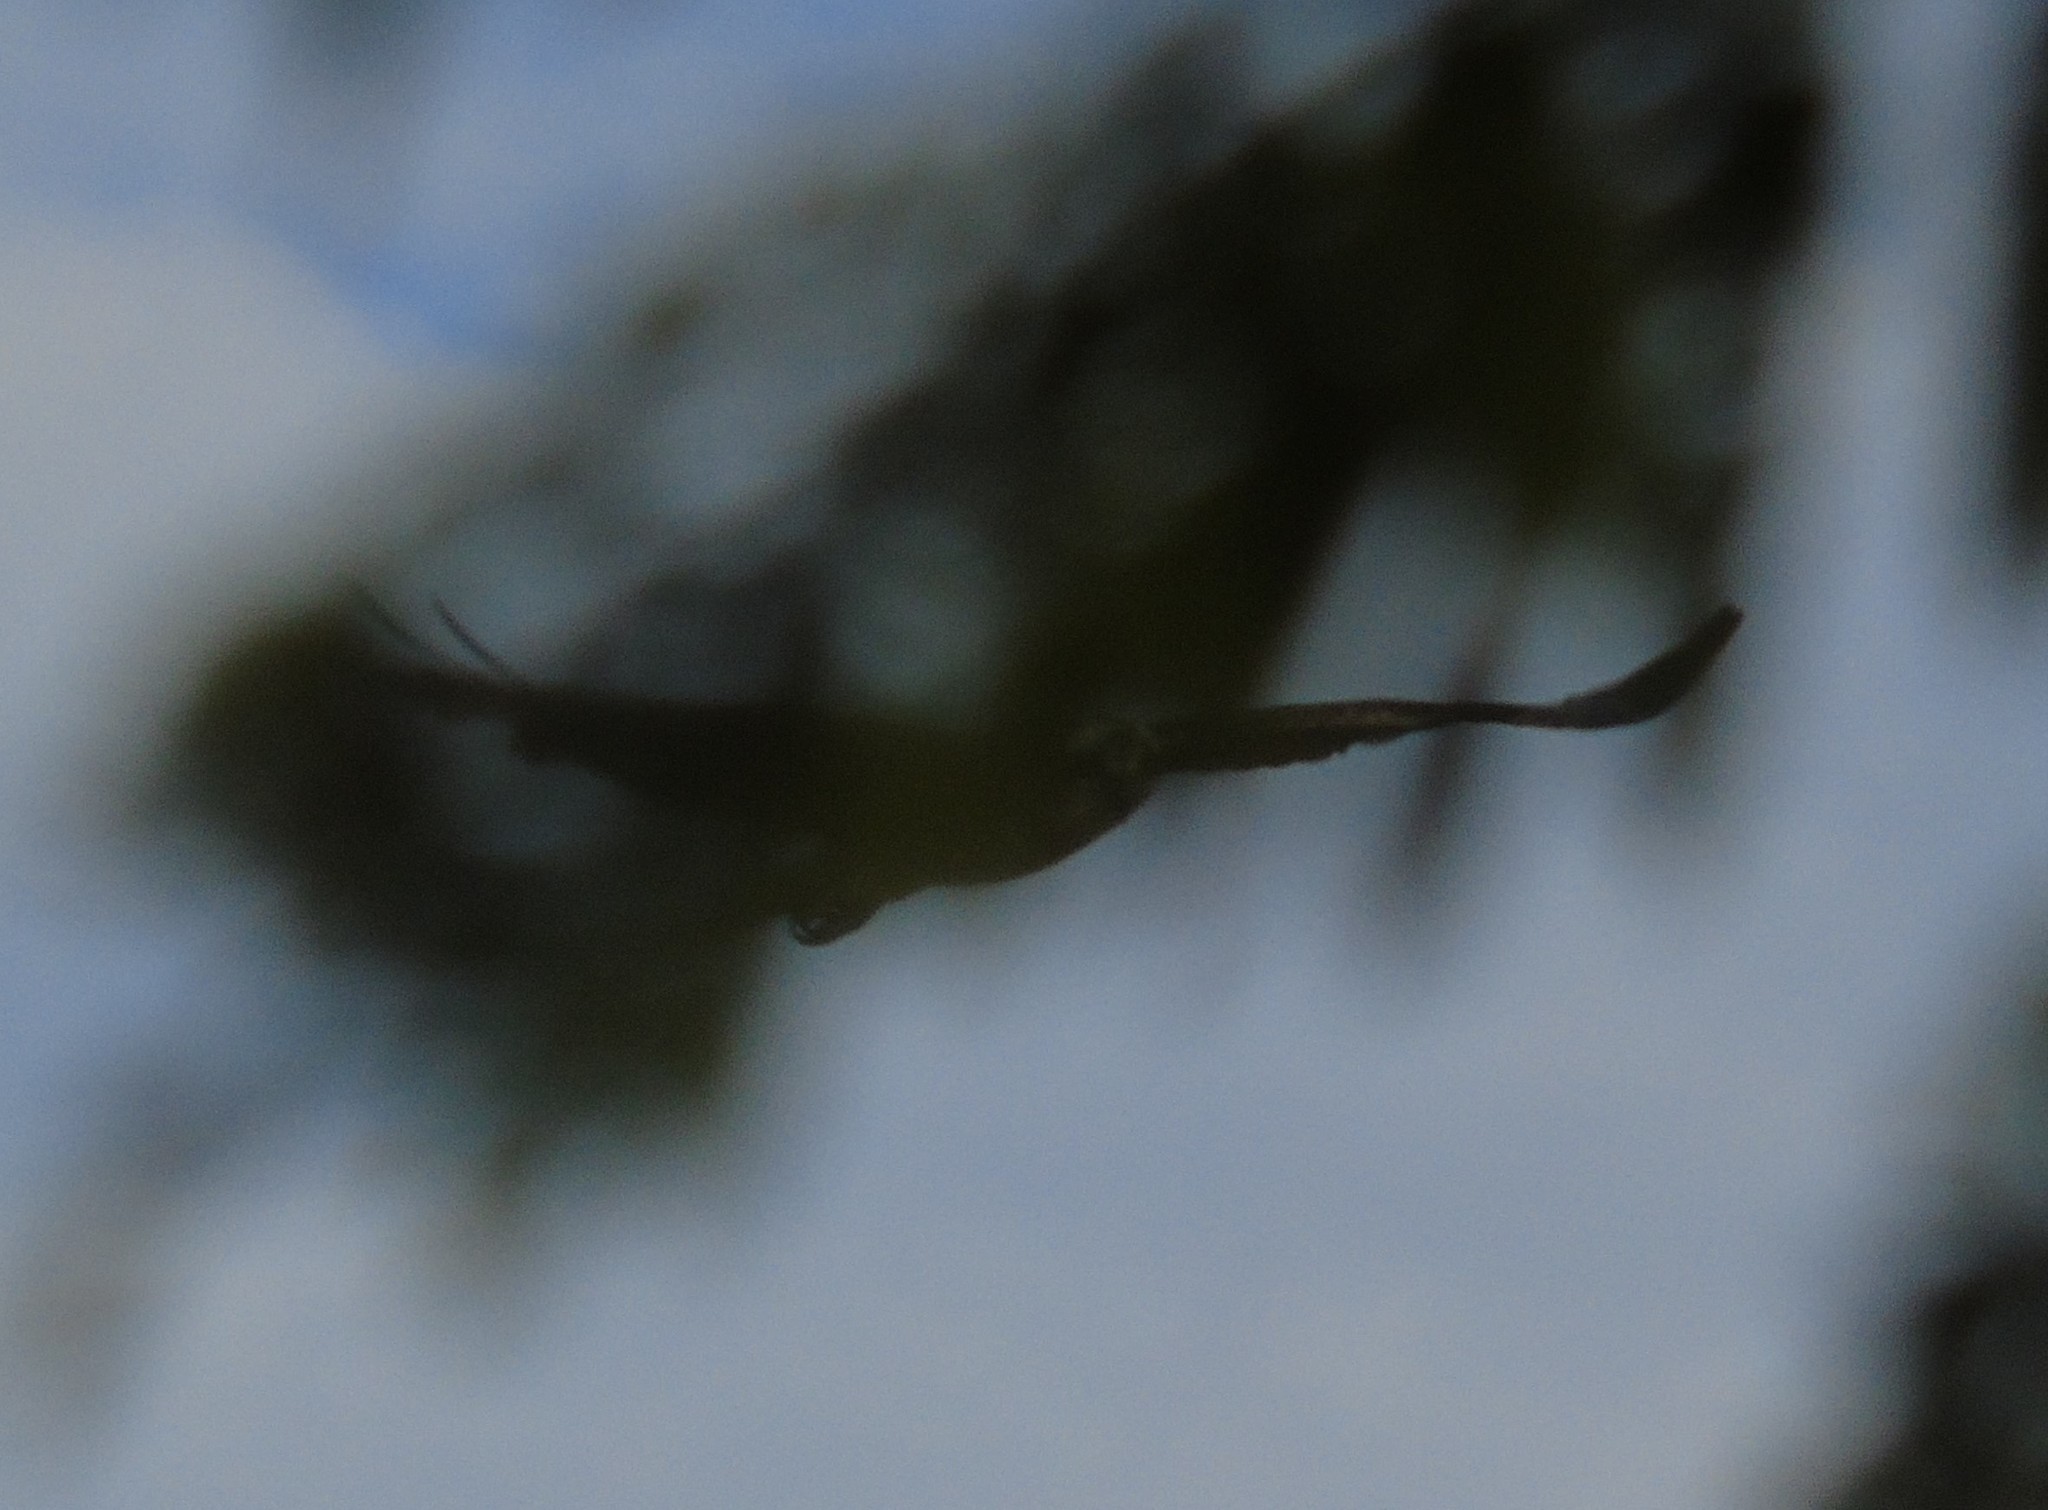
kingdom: Animalia
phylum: Chordata
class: Aves
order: Accipitriformes
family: Pandionidae
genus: Pandion
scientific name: Pandion haliaetus
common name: Osprey
